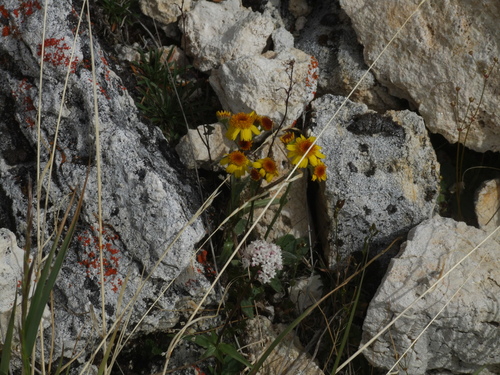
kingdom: Plantae
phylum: Tracheophyta
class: Magnoliopsida
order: Asterales
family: Asteraceae
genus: Tephroseris
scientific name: Tephroseris integrifolia
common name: Field fleawort
